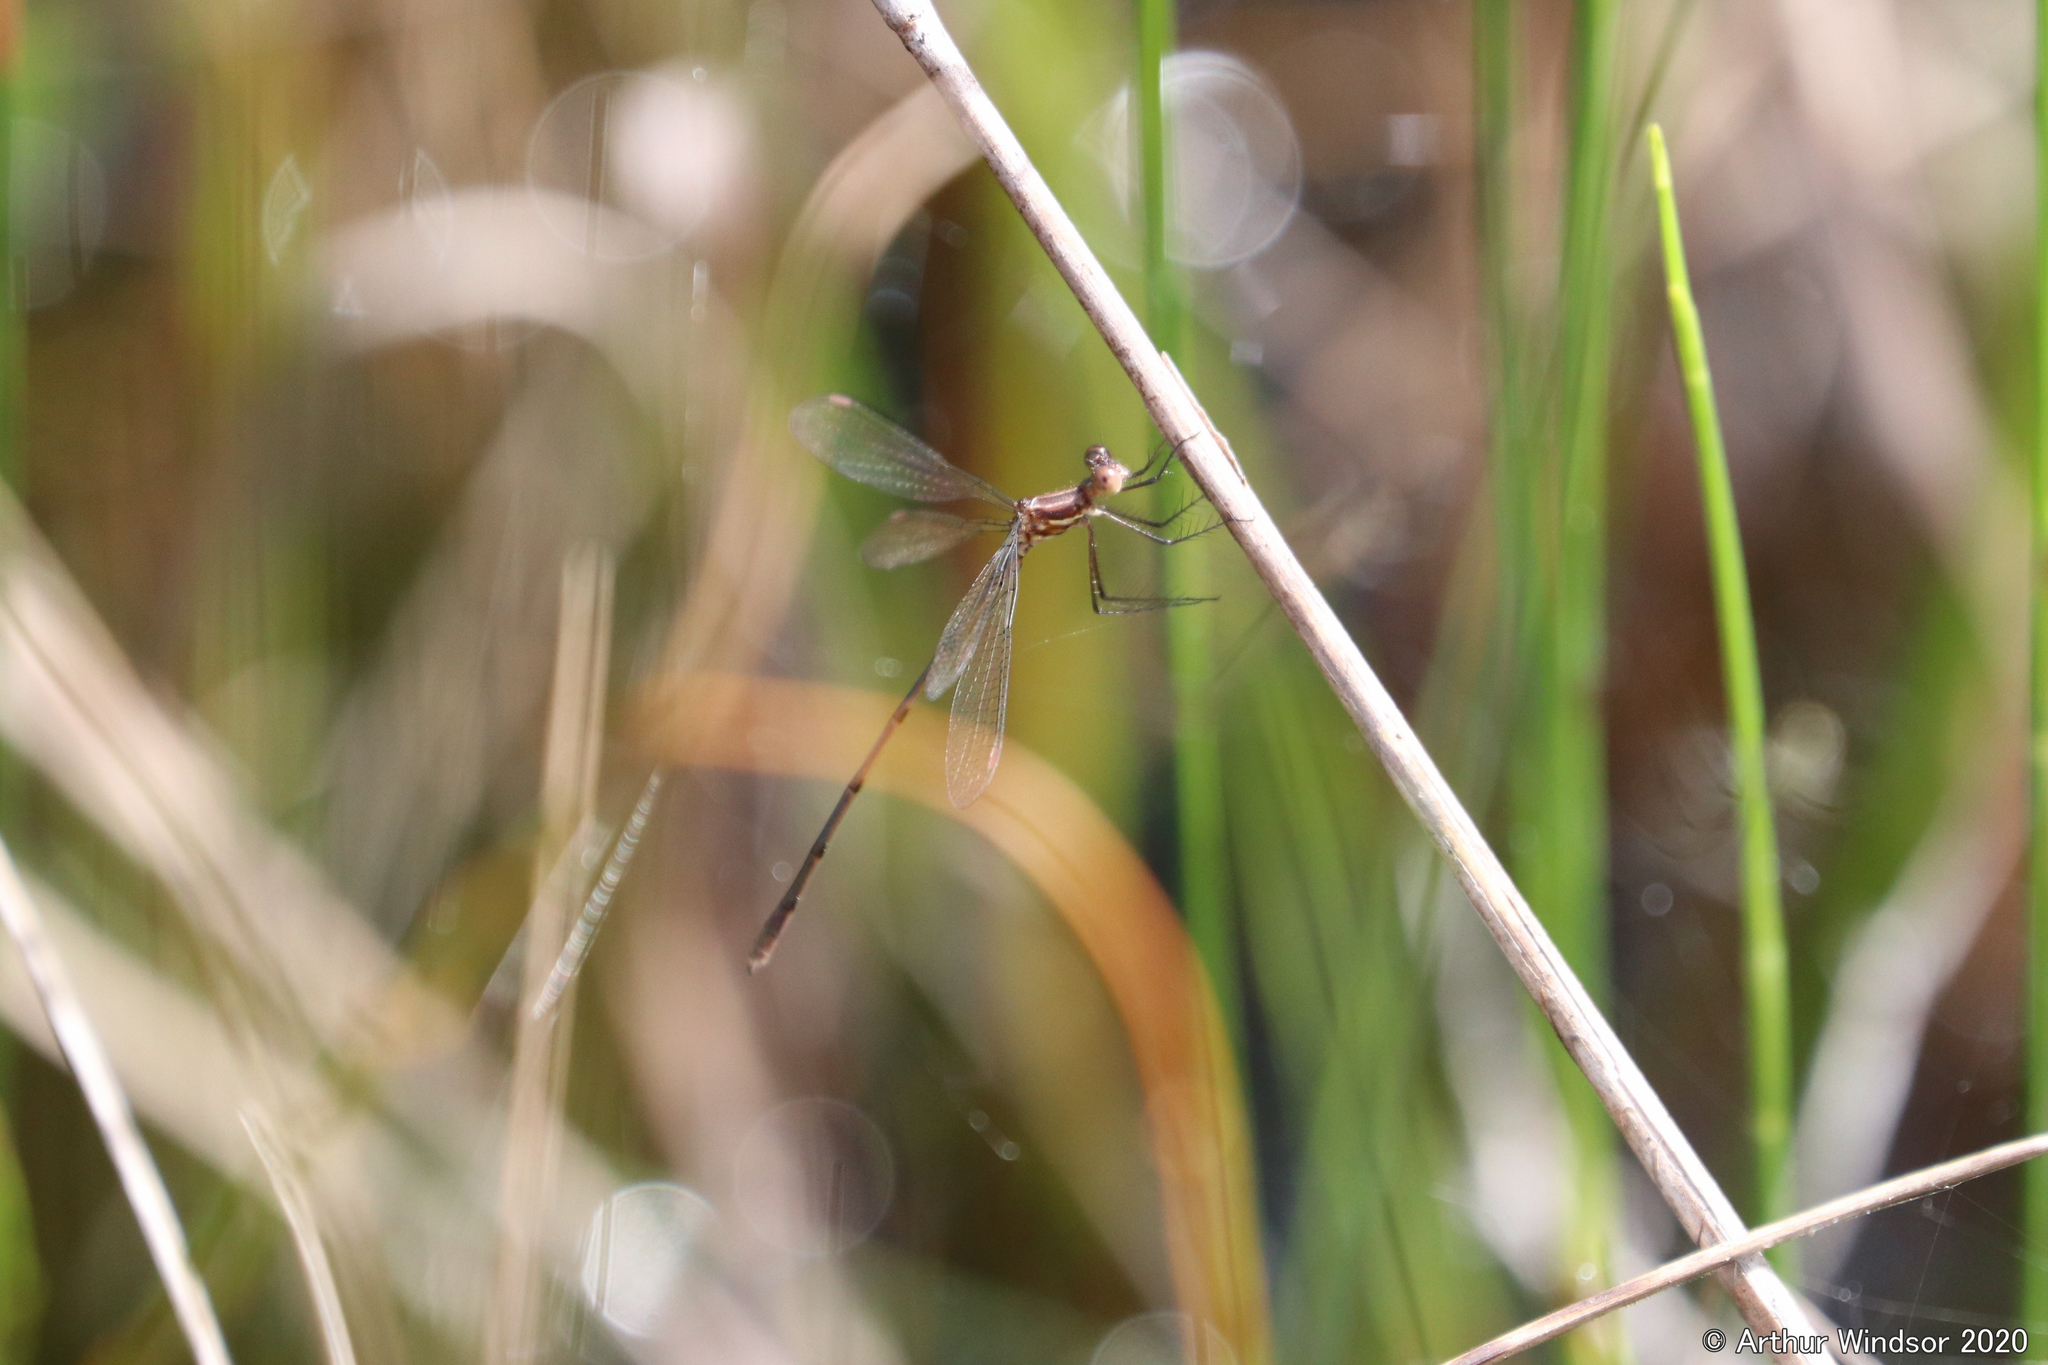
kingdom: Animalia
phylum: Arthropoda
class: Insecta
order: Odonata
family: Lestidae
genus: Lestes
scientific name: Lestes vidua
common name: Carolina spreadwing
